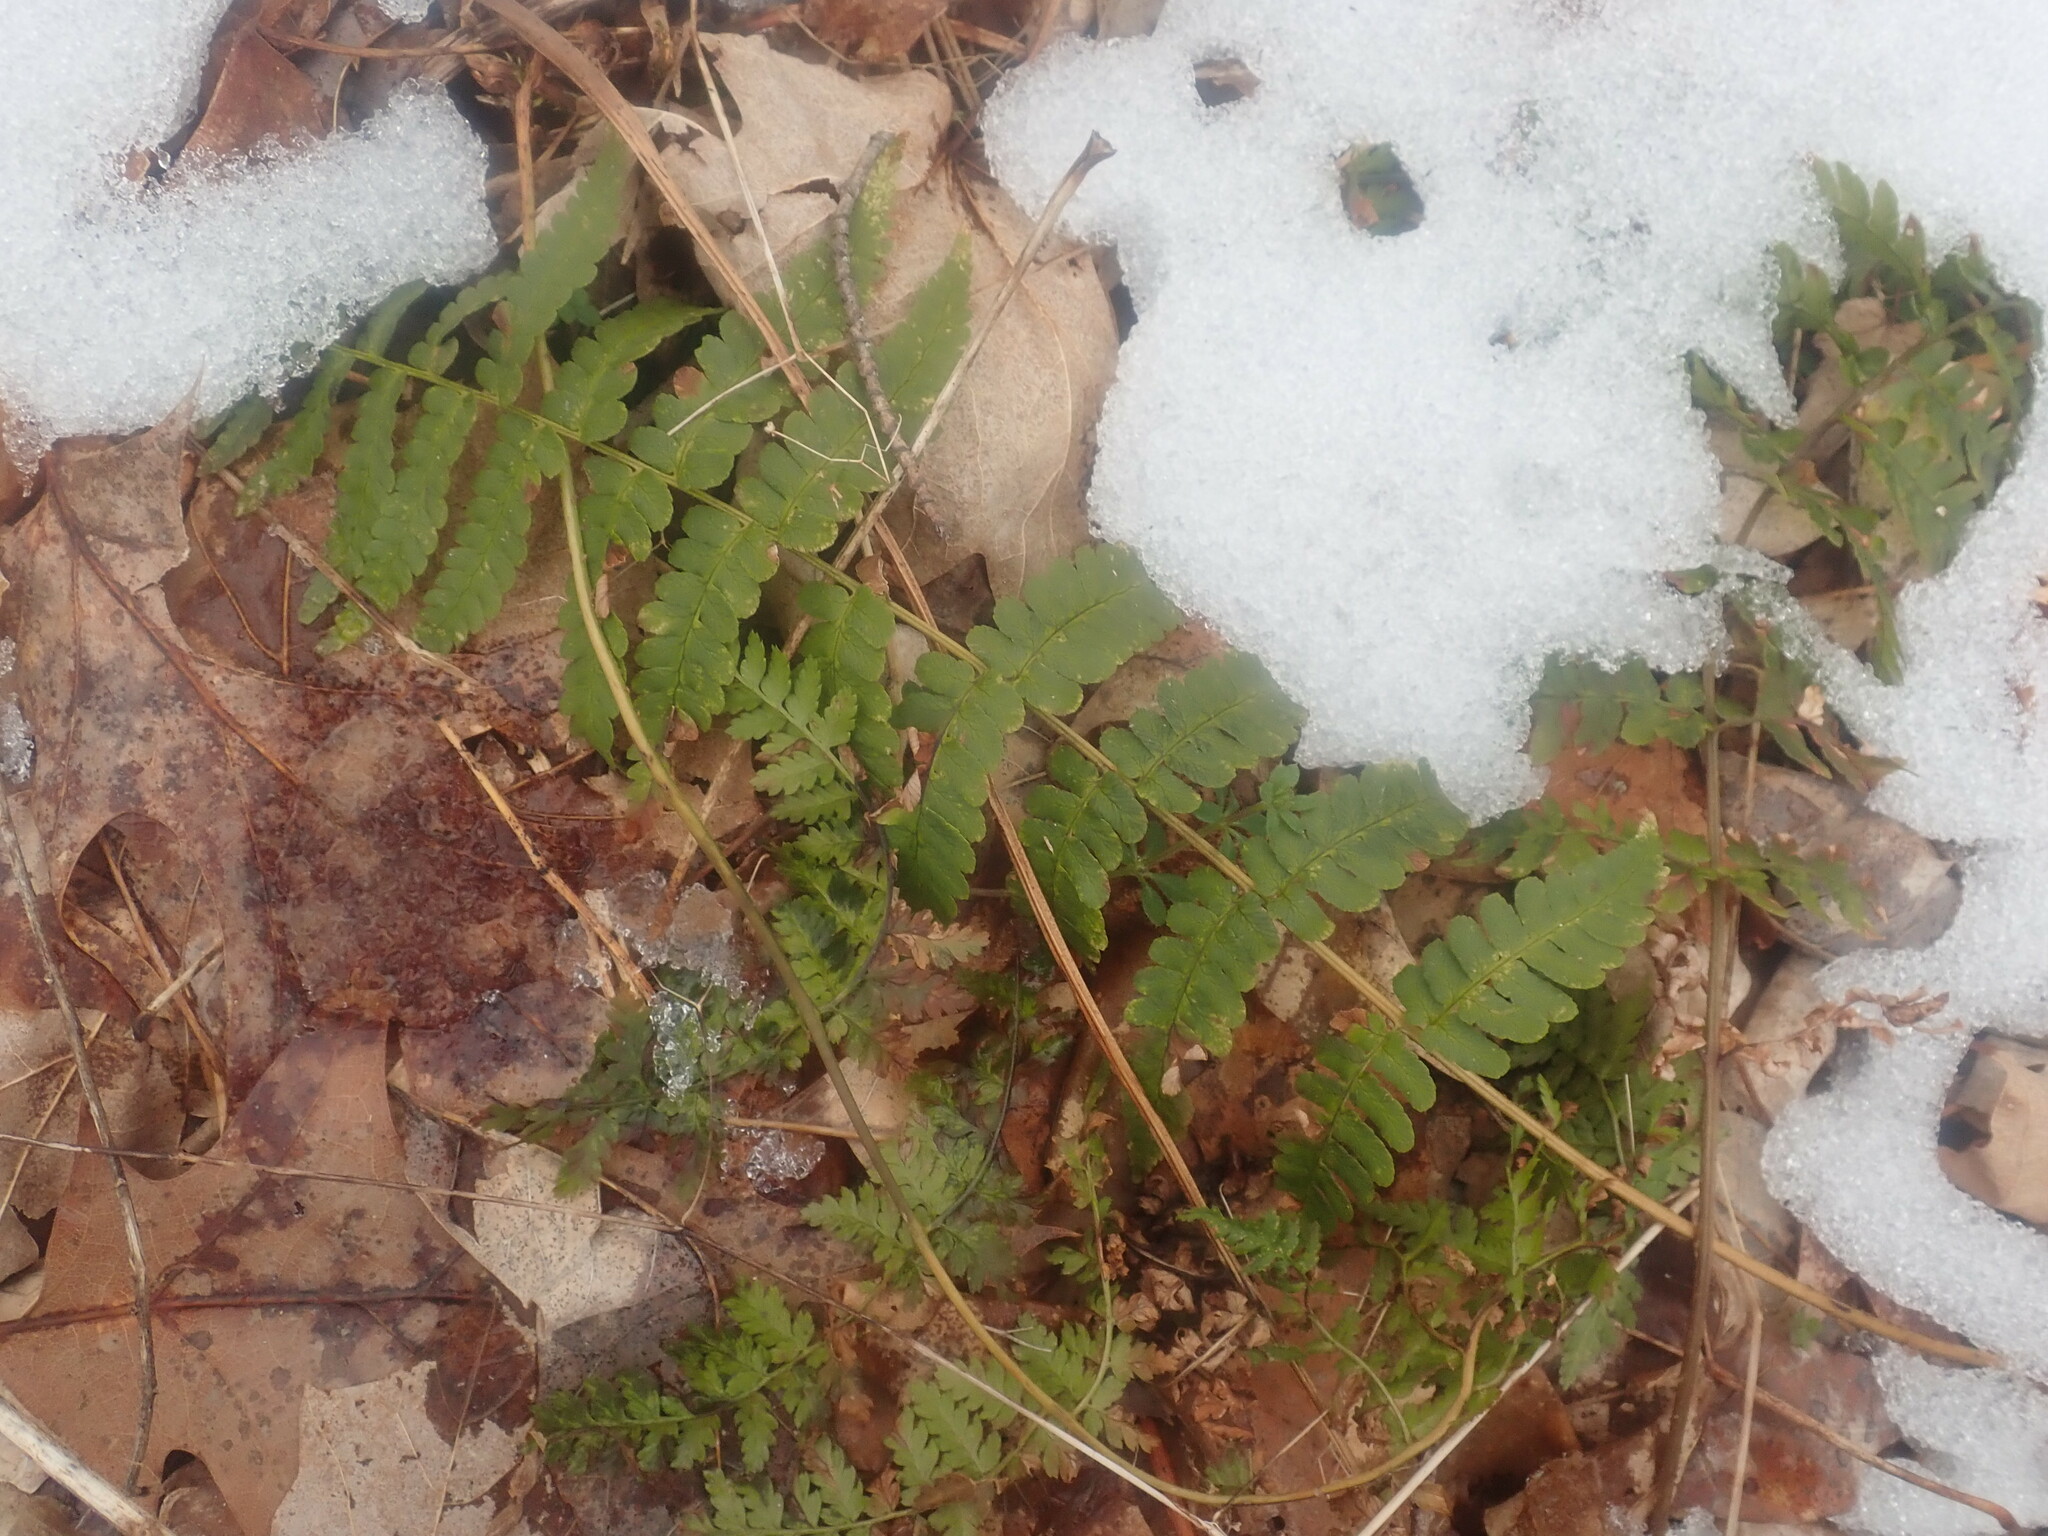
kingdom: Plantae
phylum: Tracheophyta
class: Polypodiopsida
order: Polypodiales
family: Dryopteridaceae
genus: Dryopteris
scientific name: Dryopteris marginalis
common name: Marginal wood fern
